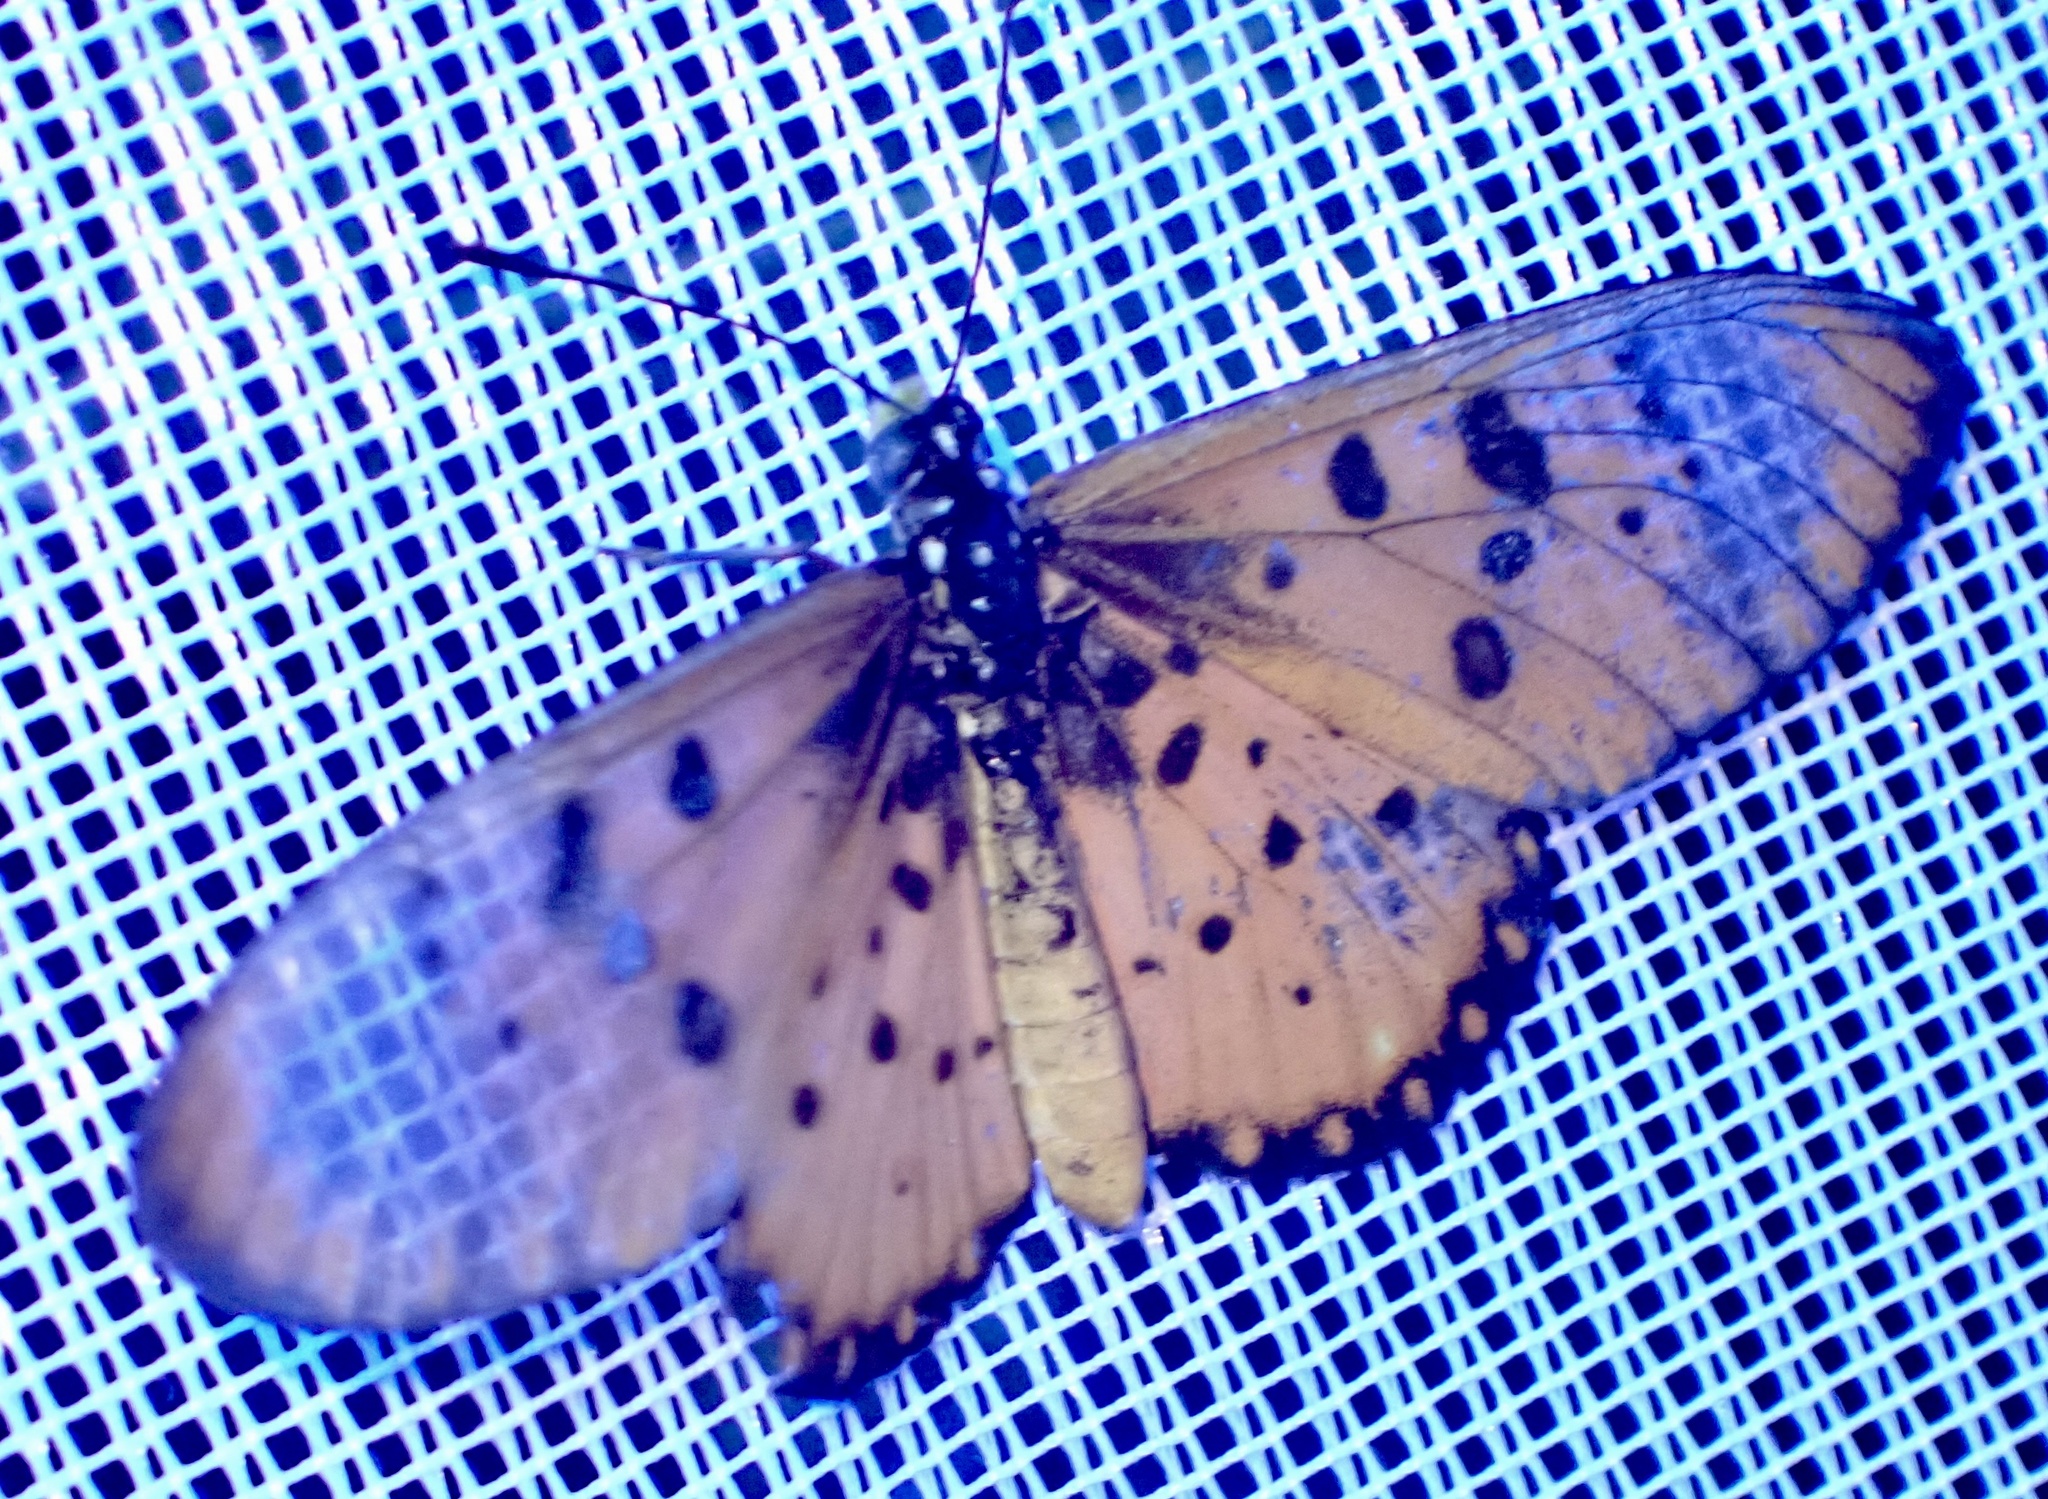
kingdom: Animalia
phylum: Arthropoda
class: Insecta
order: Lepidoptera
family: Nymphalidae
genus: Acraea
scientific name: Acraea neobule
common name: Dancing acraea
